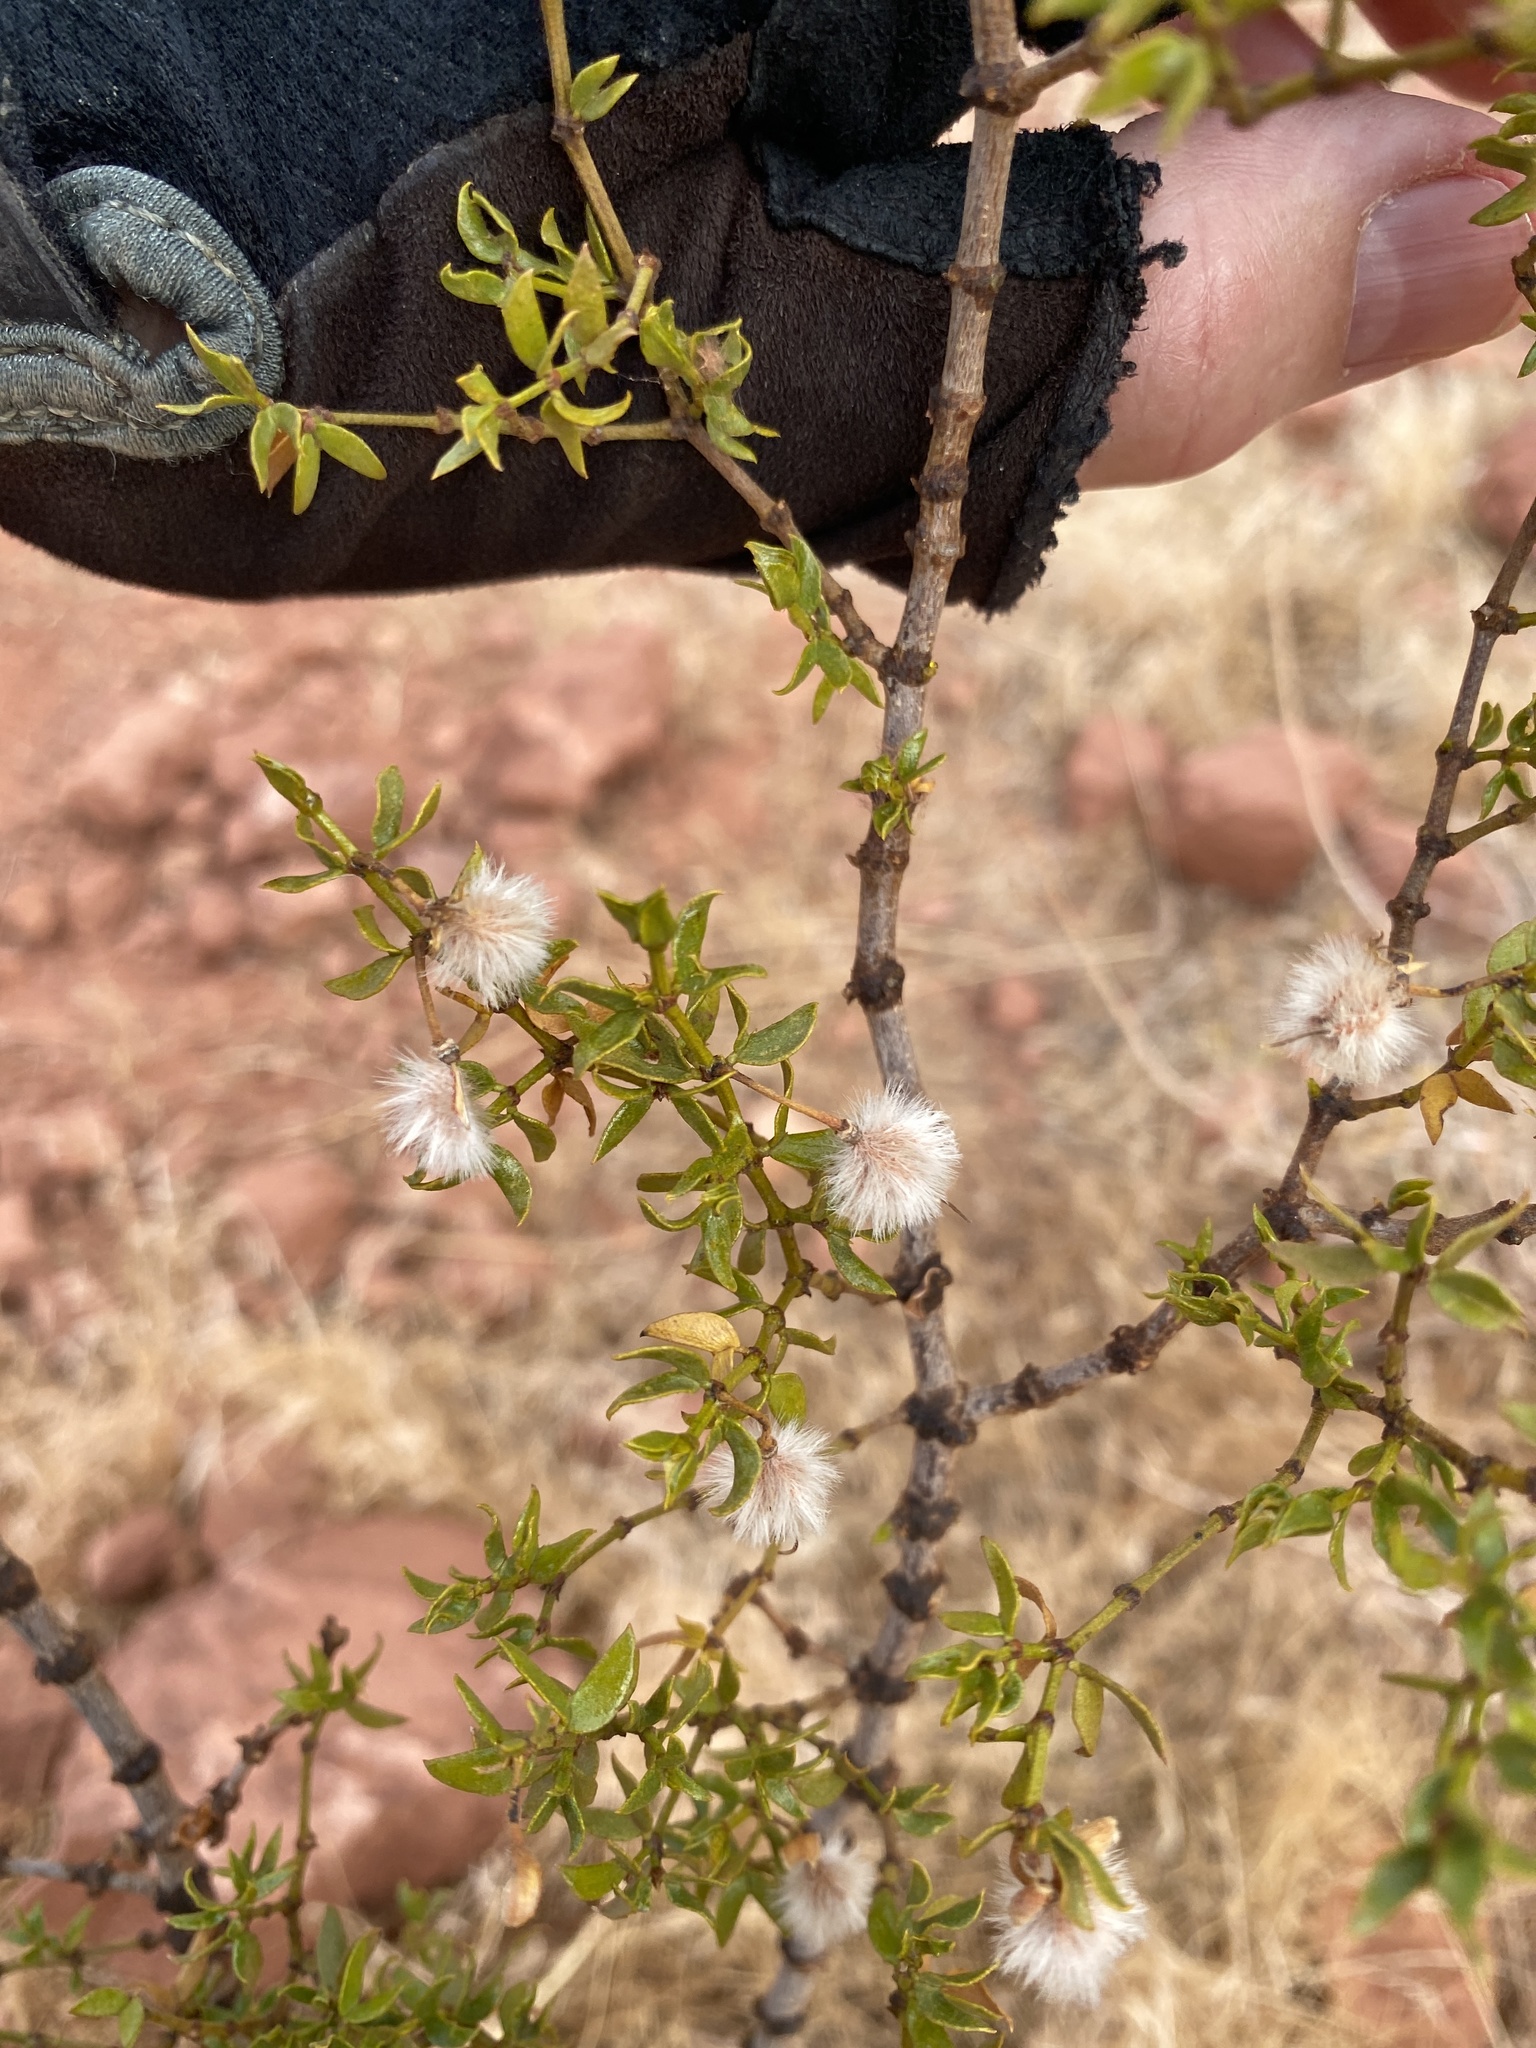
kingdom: Plantae
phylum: Tracheophyta
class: Magnoliopsida
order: Zygophyllales
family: Zygophyllaceae
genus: Larrea
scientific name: Larrea tridentata
